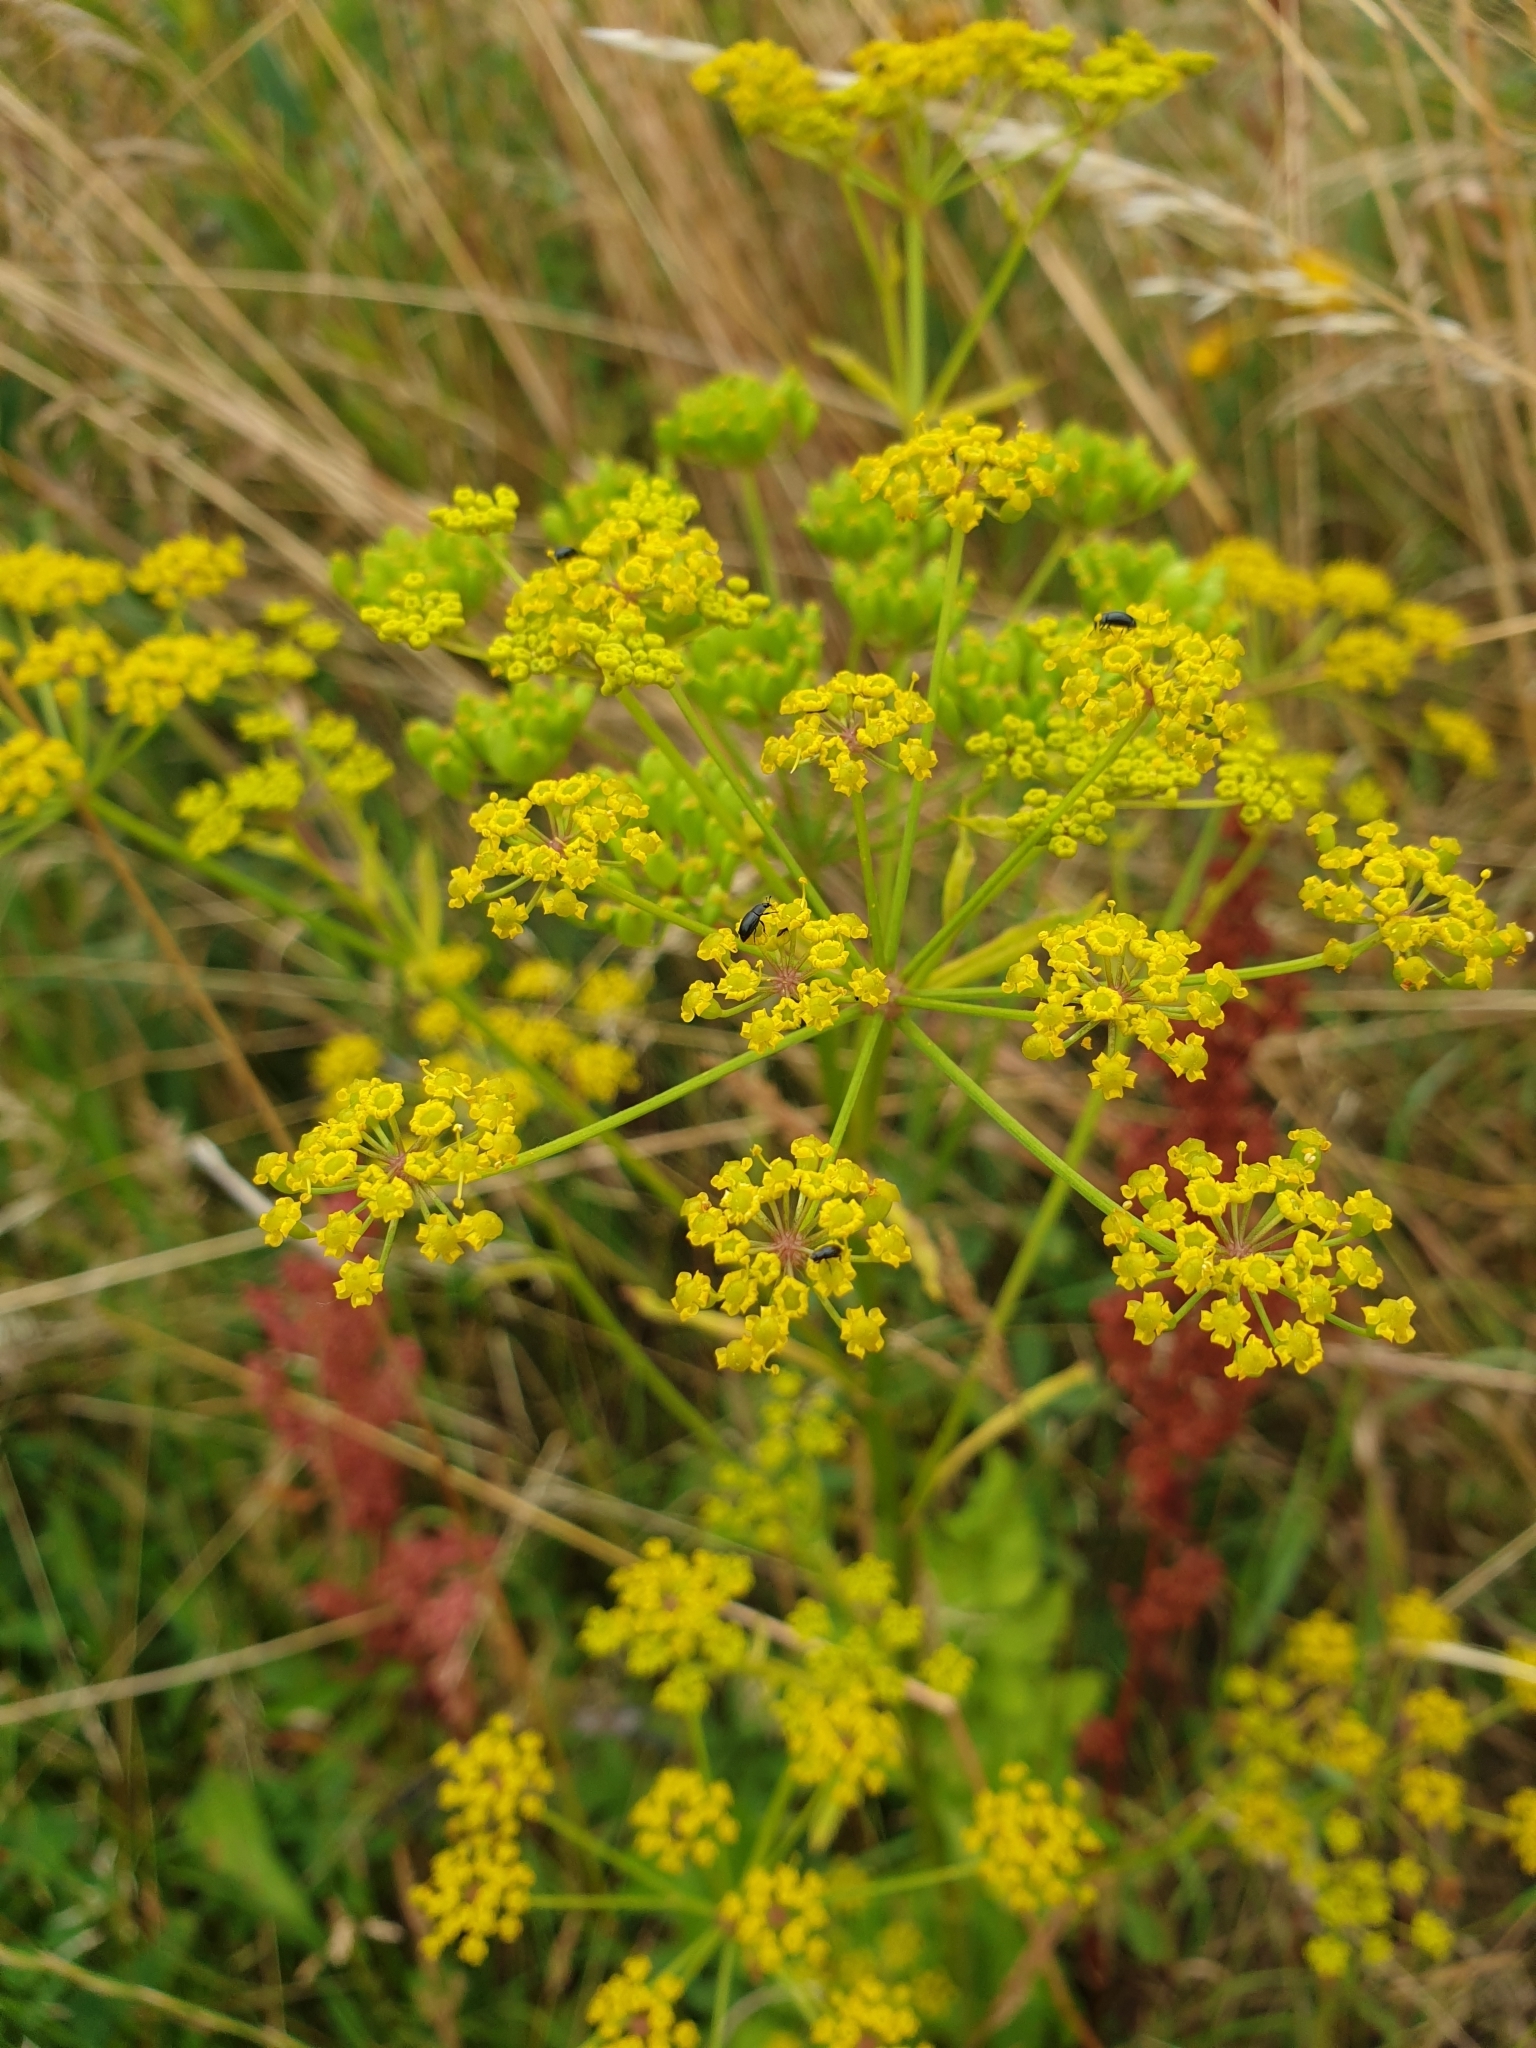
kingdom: Plantae
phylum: Tracheophyta
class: Magnoliopsida
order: Apiales
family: Apiaceae
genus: Pastinaca
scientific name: Pastinaca sativa
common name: Wild parsnip
